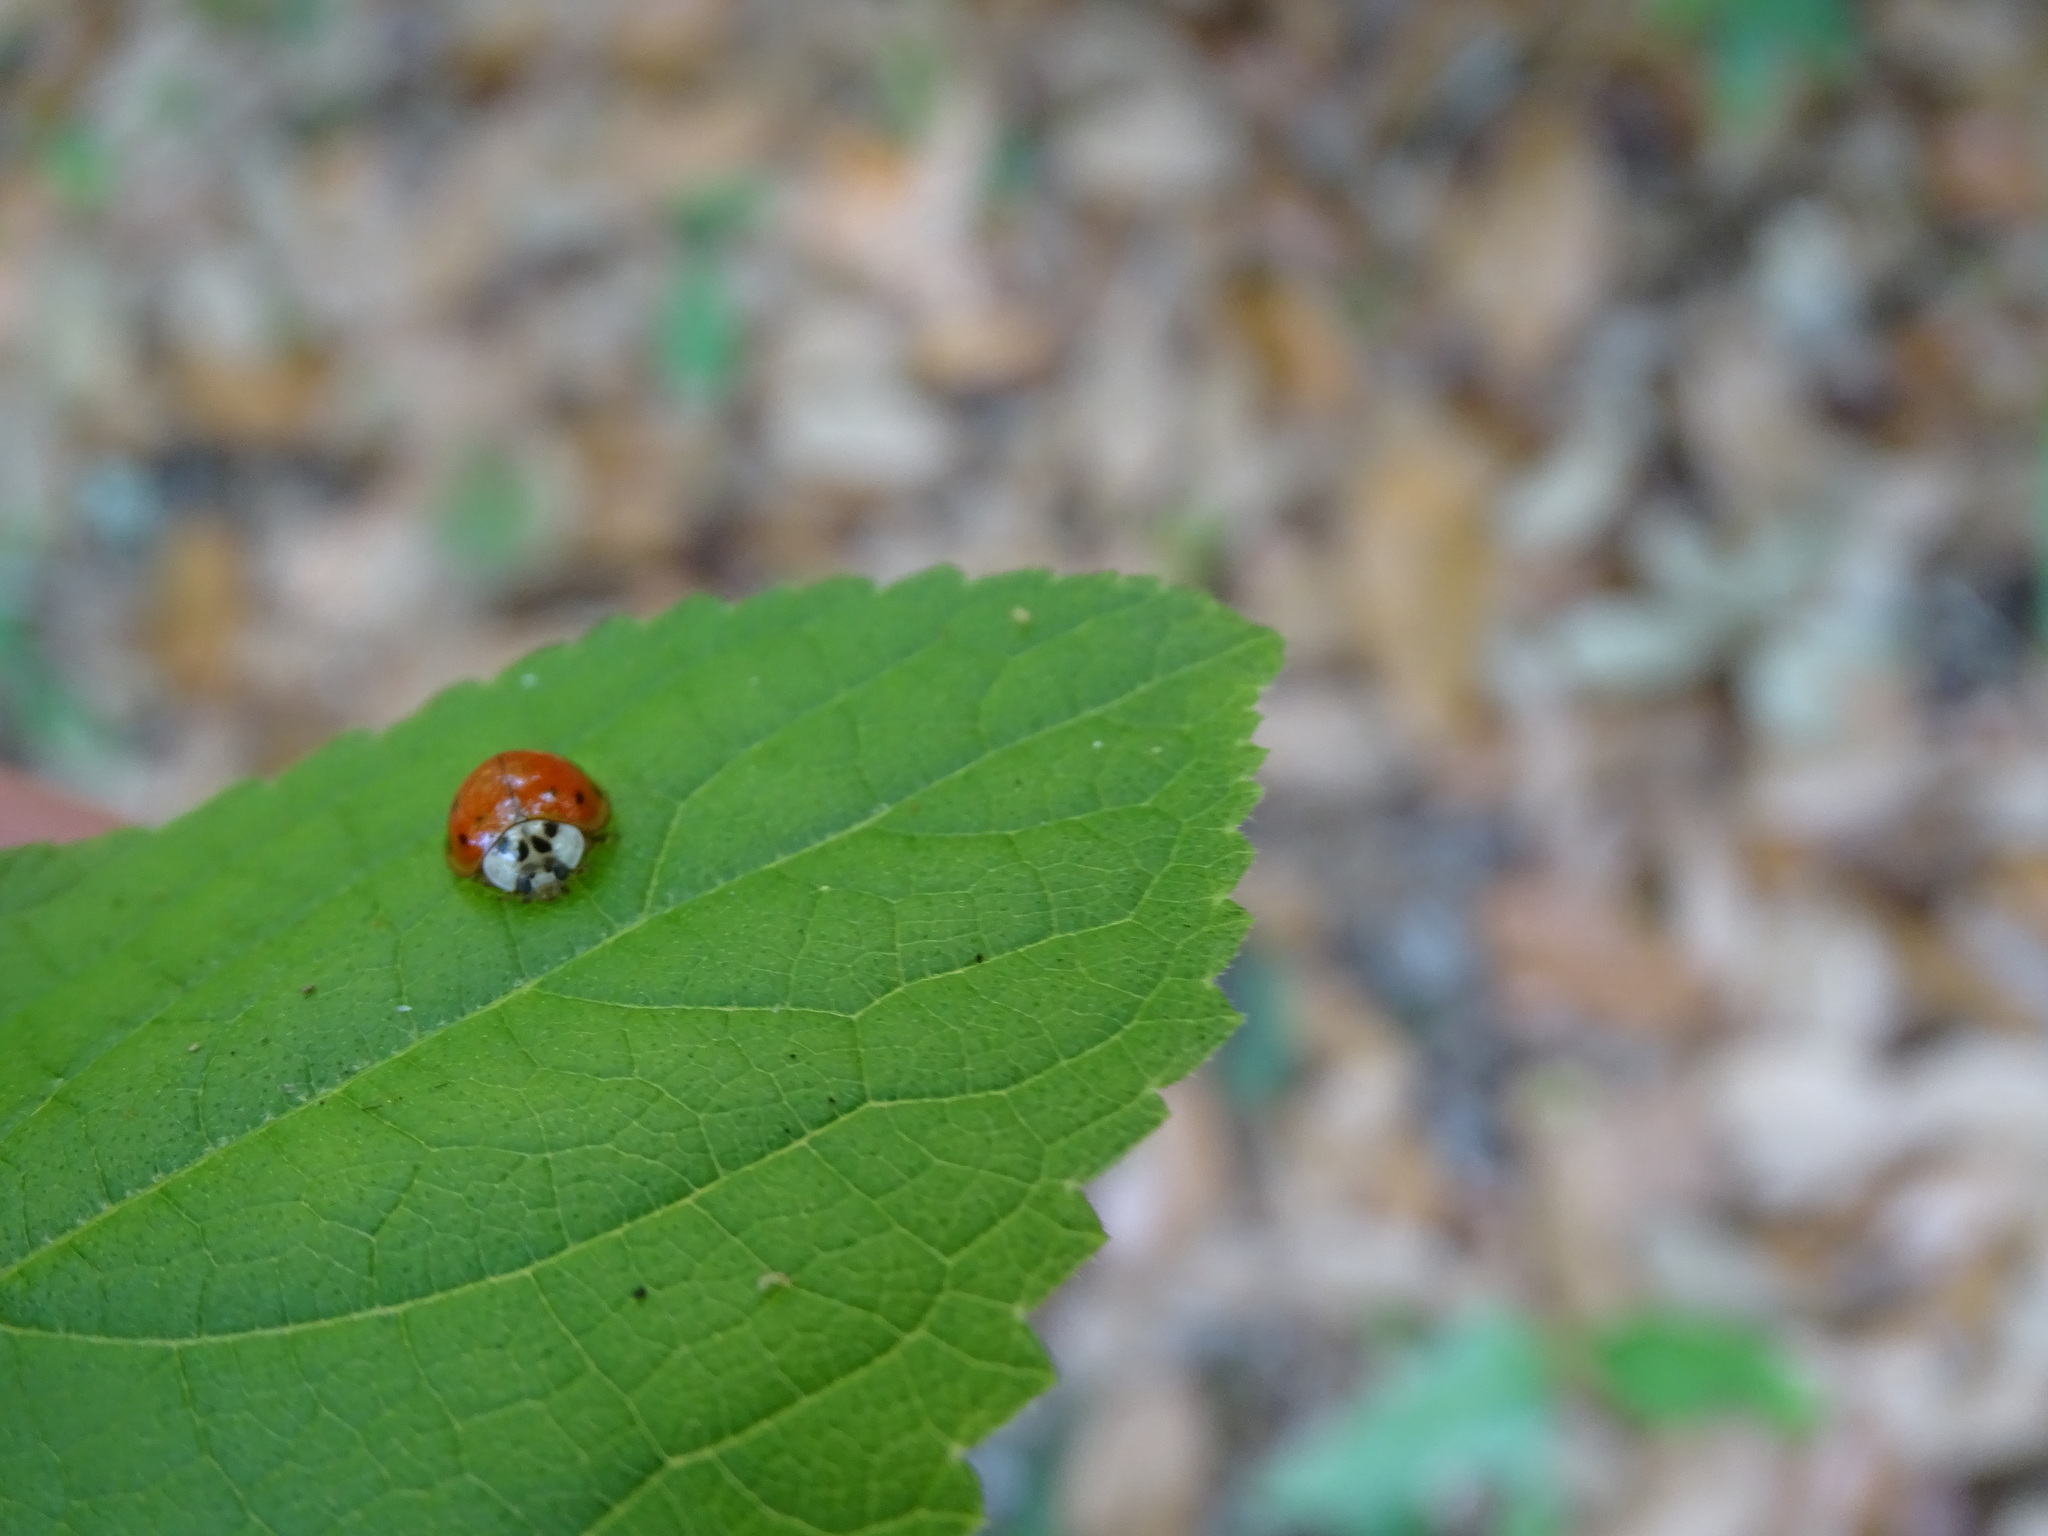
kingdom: Animalia
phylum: Arthropoda
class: Insecta
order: Coleoptera
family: Coccinellidae
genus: Harmonia
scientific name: Harmonia axyridis
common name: Harlequin ladybird
